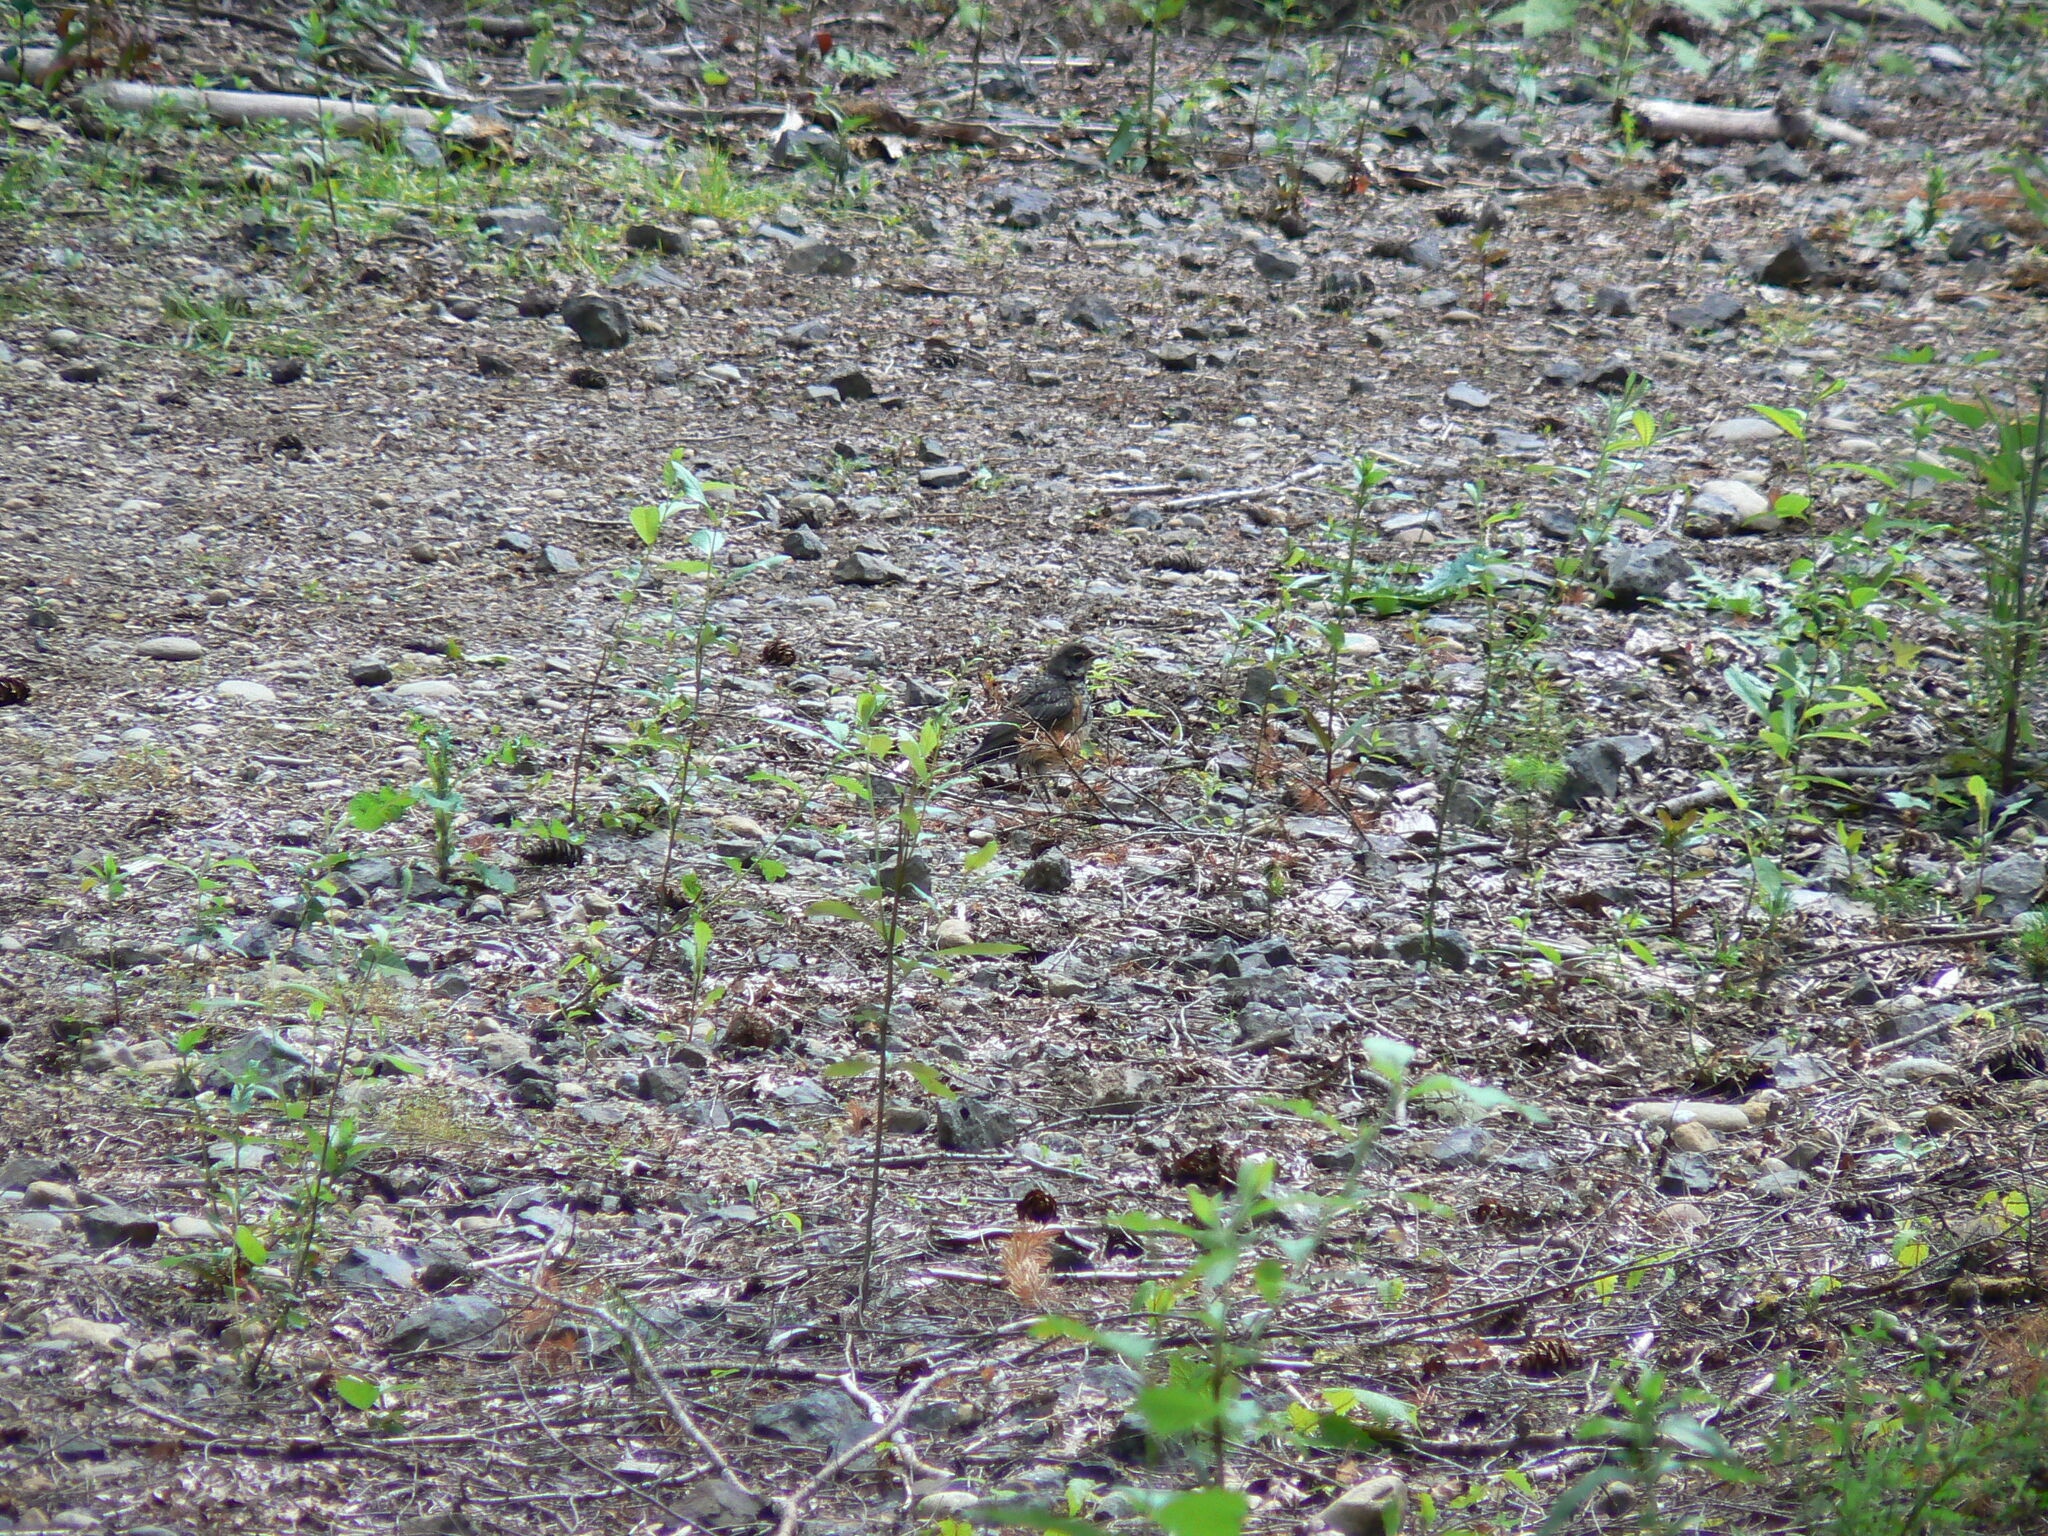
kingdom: Animalia
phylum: Chordata
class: Aves
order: Passeriformes
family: Turdidae
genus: Turdus
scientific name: Turdus migratorius
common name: American robin
